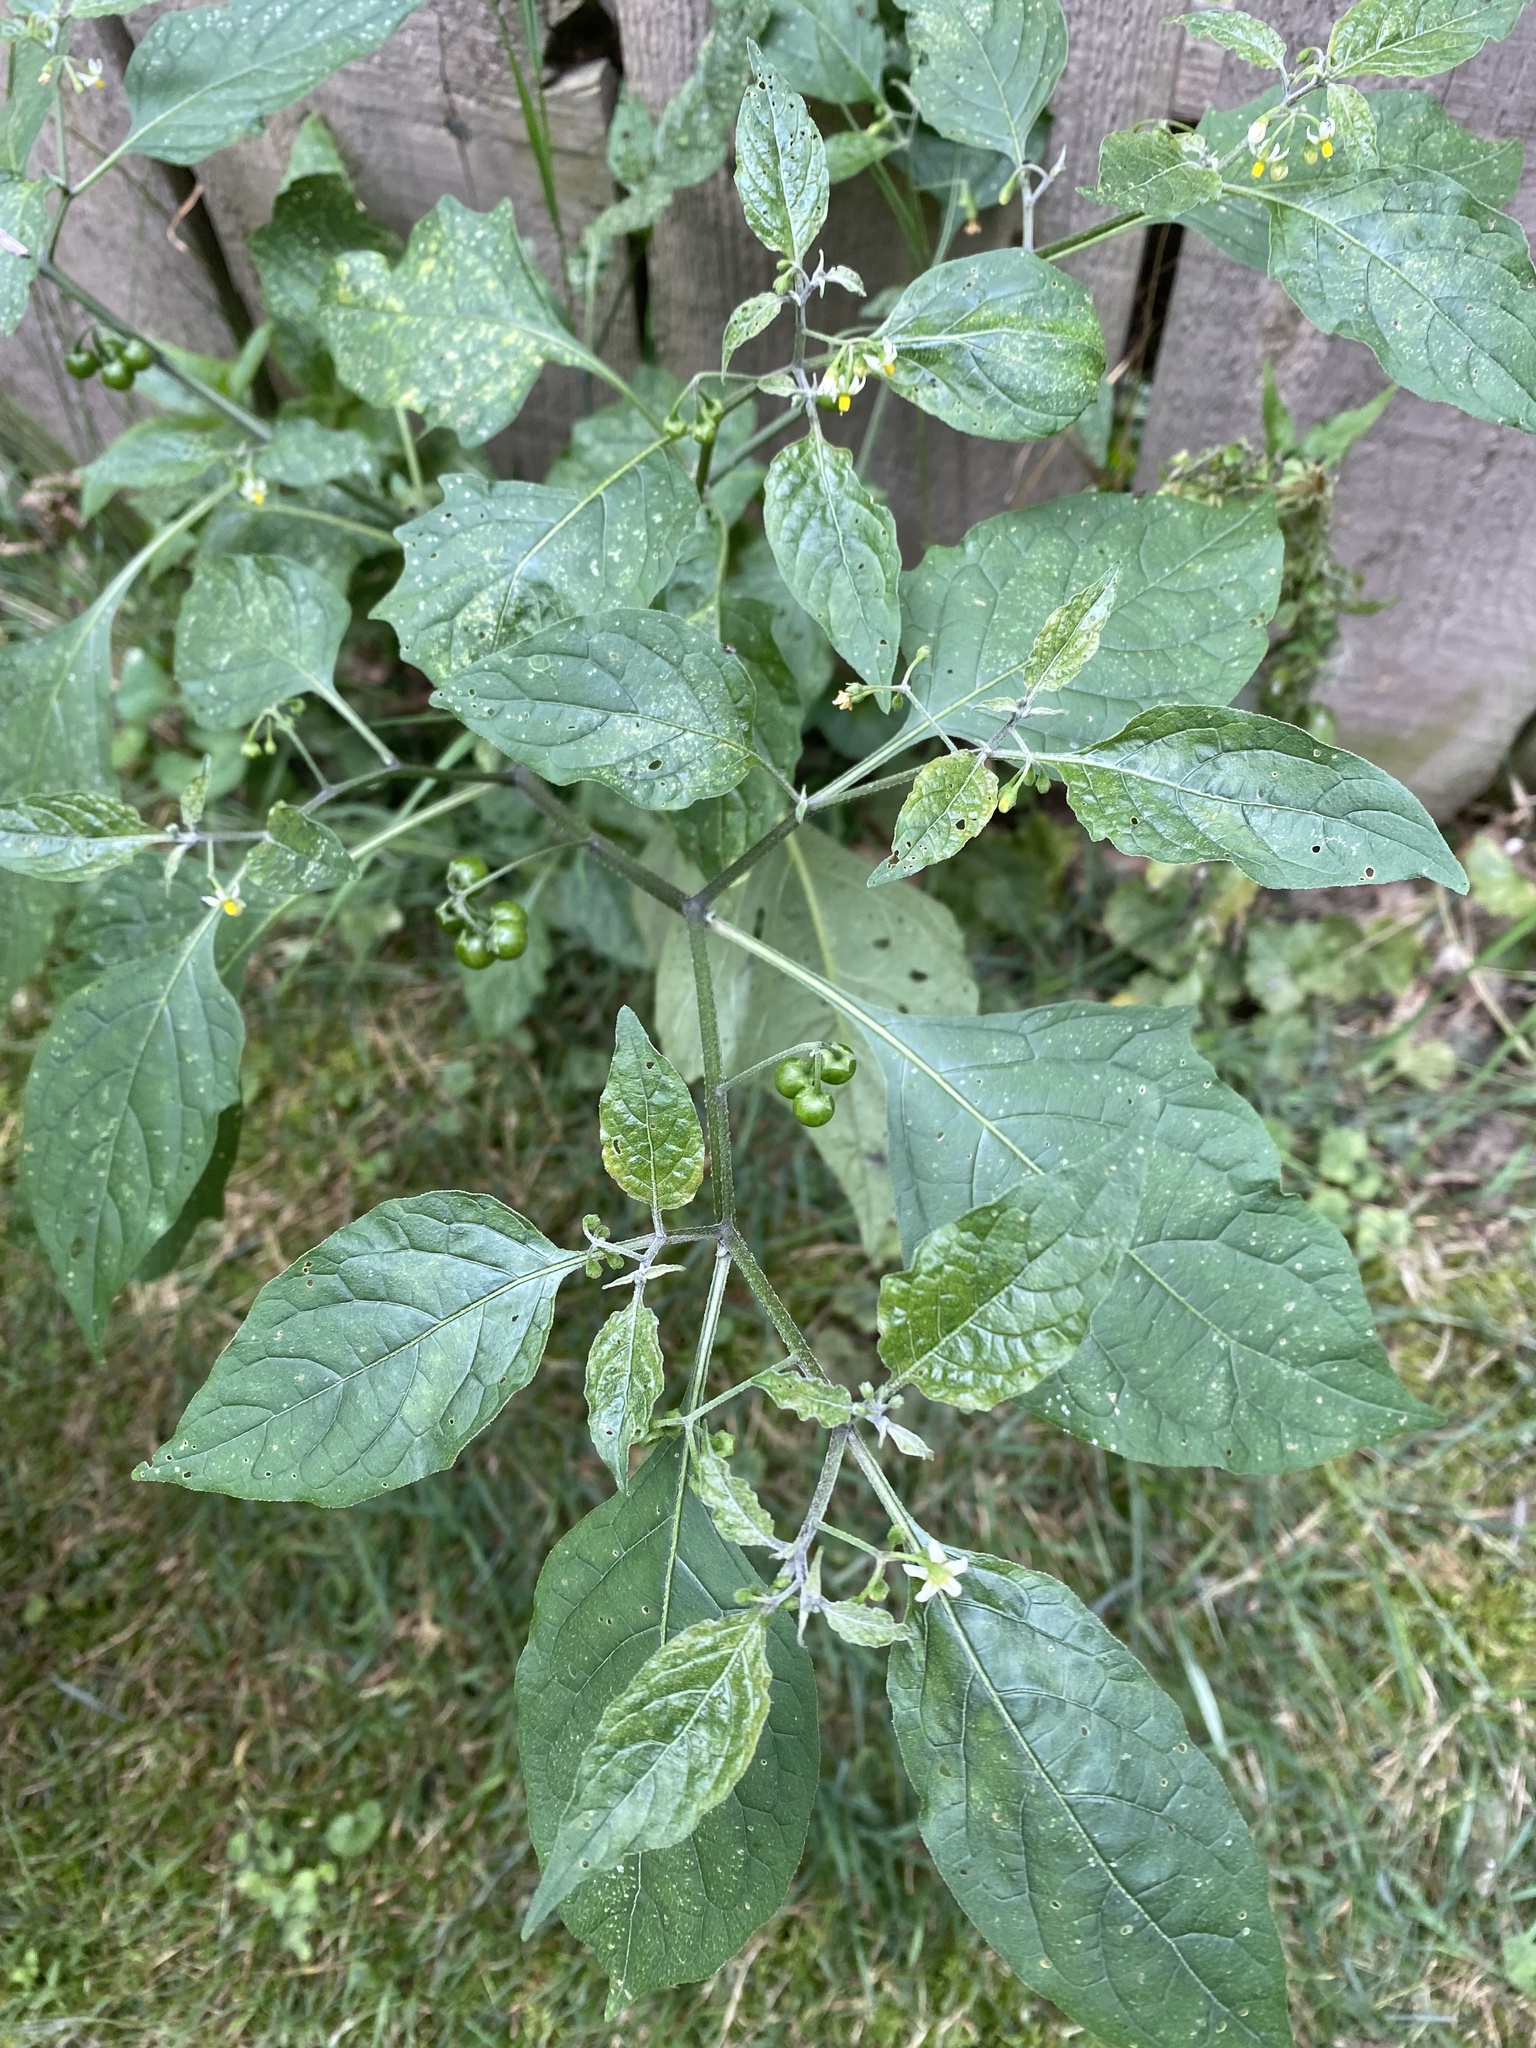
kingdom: Plantae
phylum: Tracheophyta
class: Magnoliopsida
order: Solanales
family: Solanaceae
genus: Solanum
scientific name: Solanum emulans
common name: Eastern black nightshade
